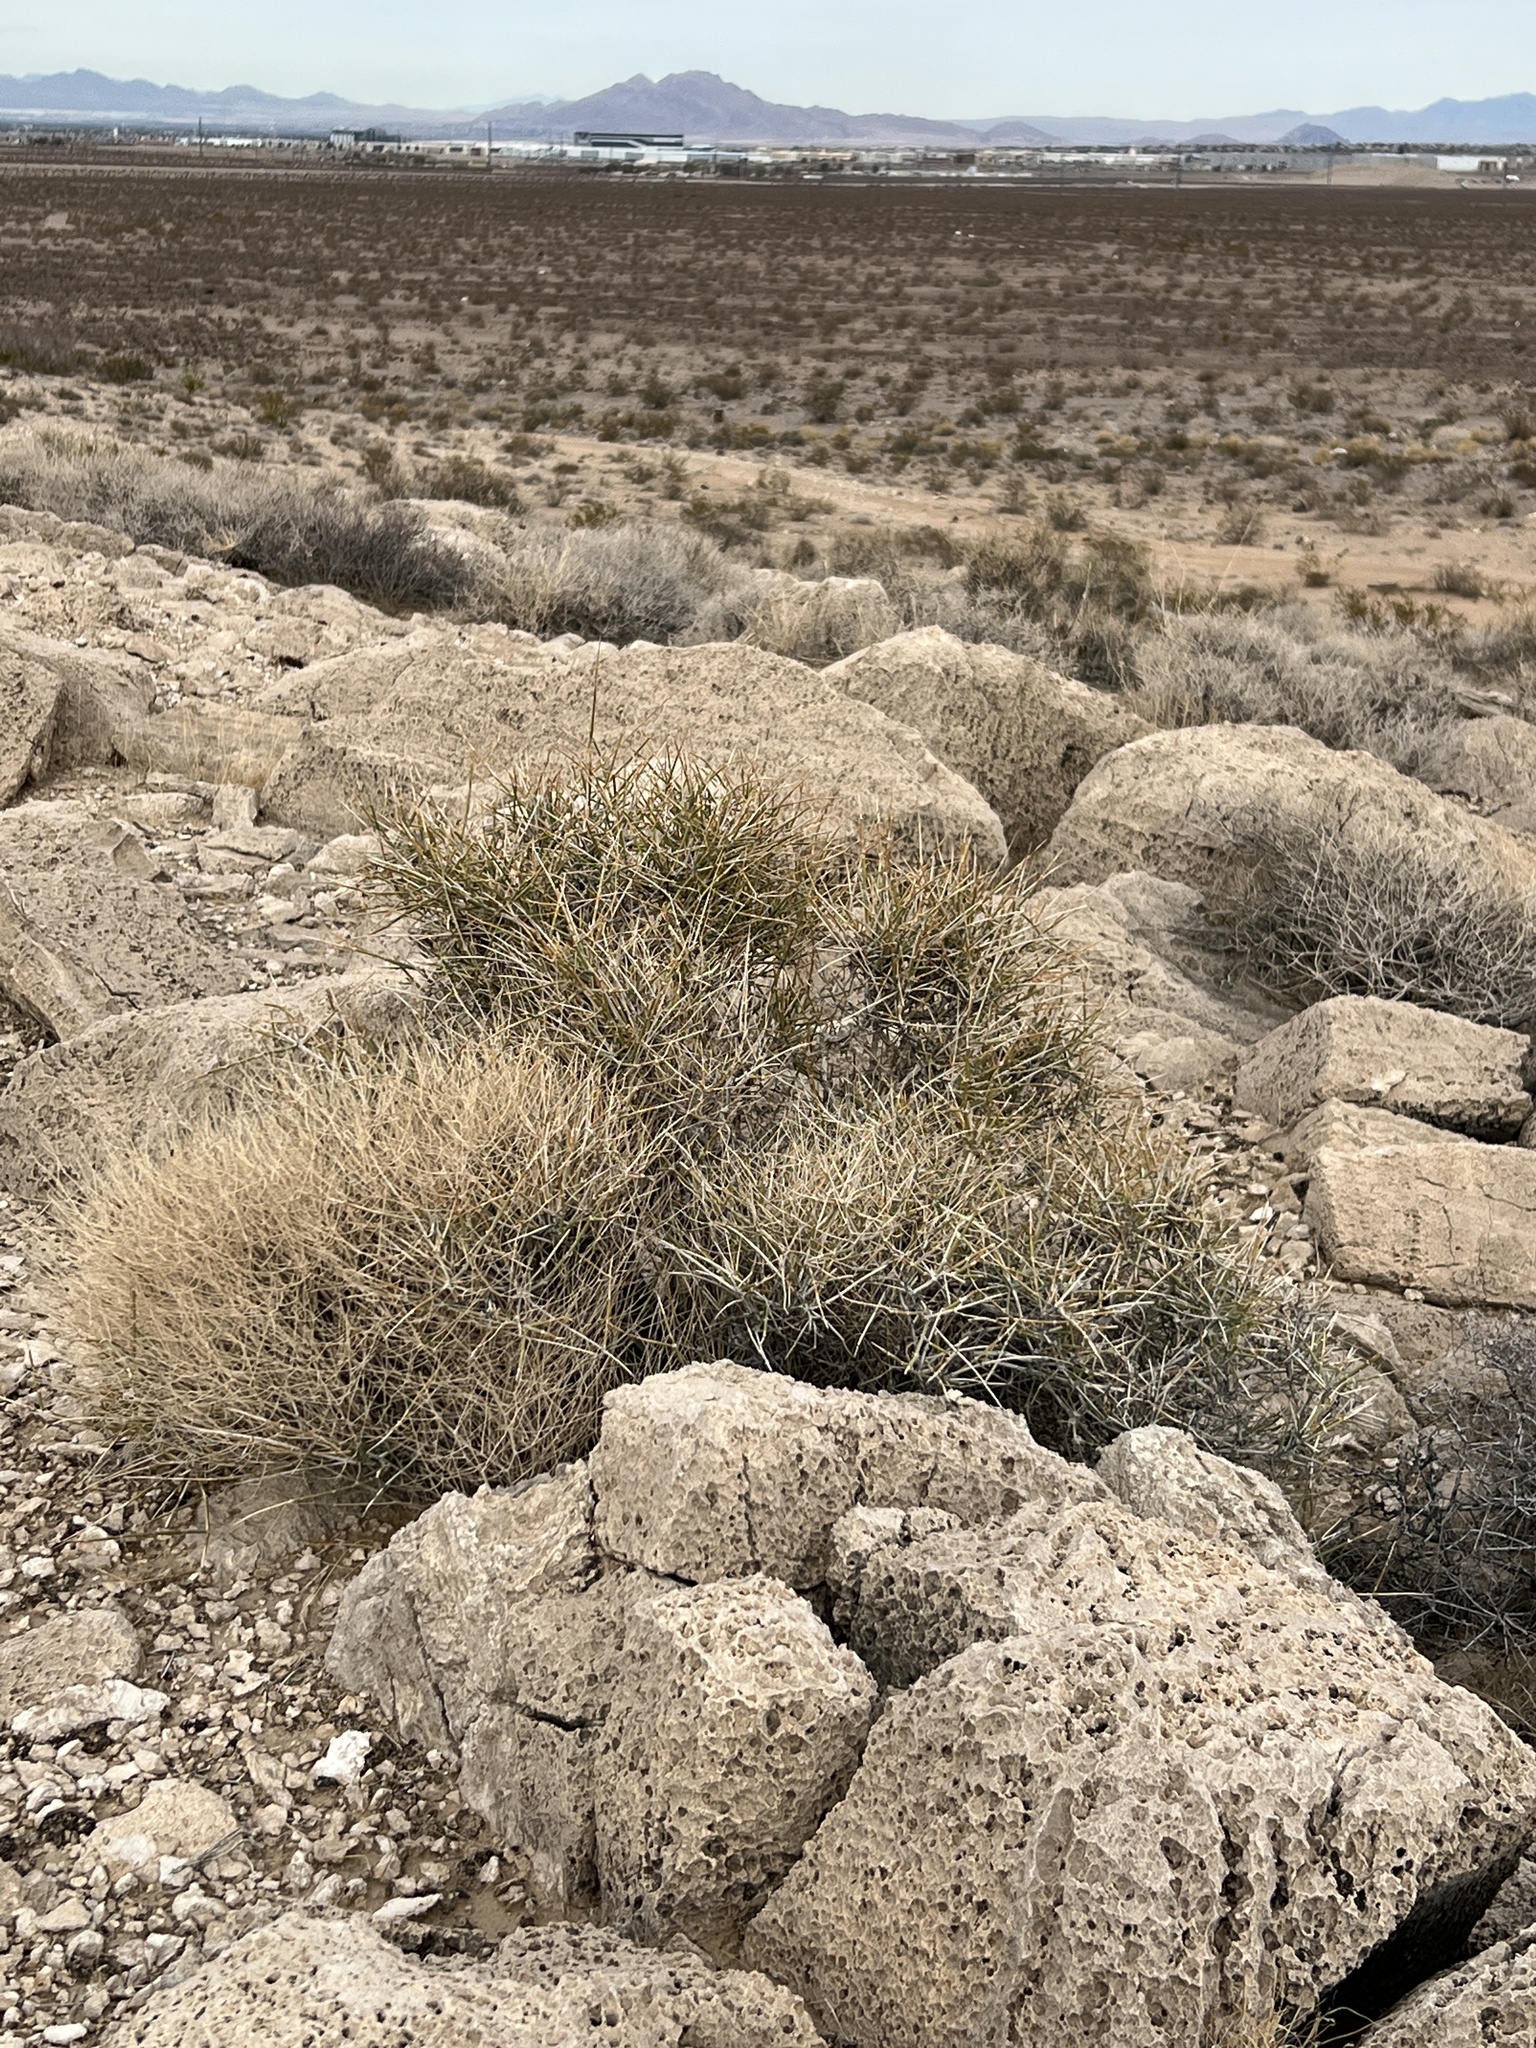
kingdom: Plantae
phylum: Tracheophyta
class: Gnetopsida
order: Ephedrales
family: Ephedraceae
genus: Ephedra
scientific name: Ephedra nevadensis
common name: Gray ephedra
